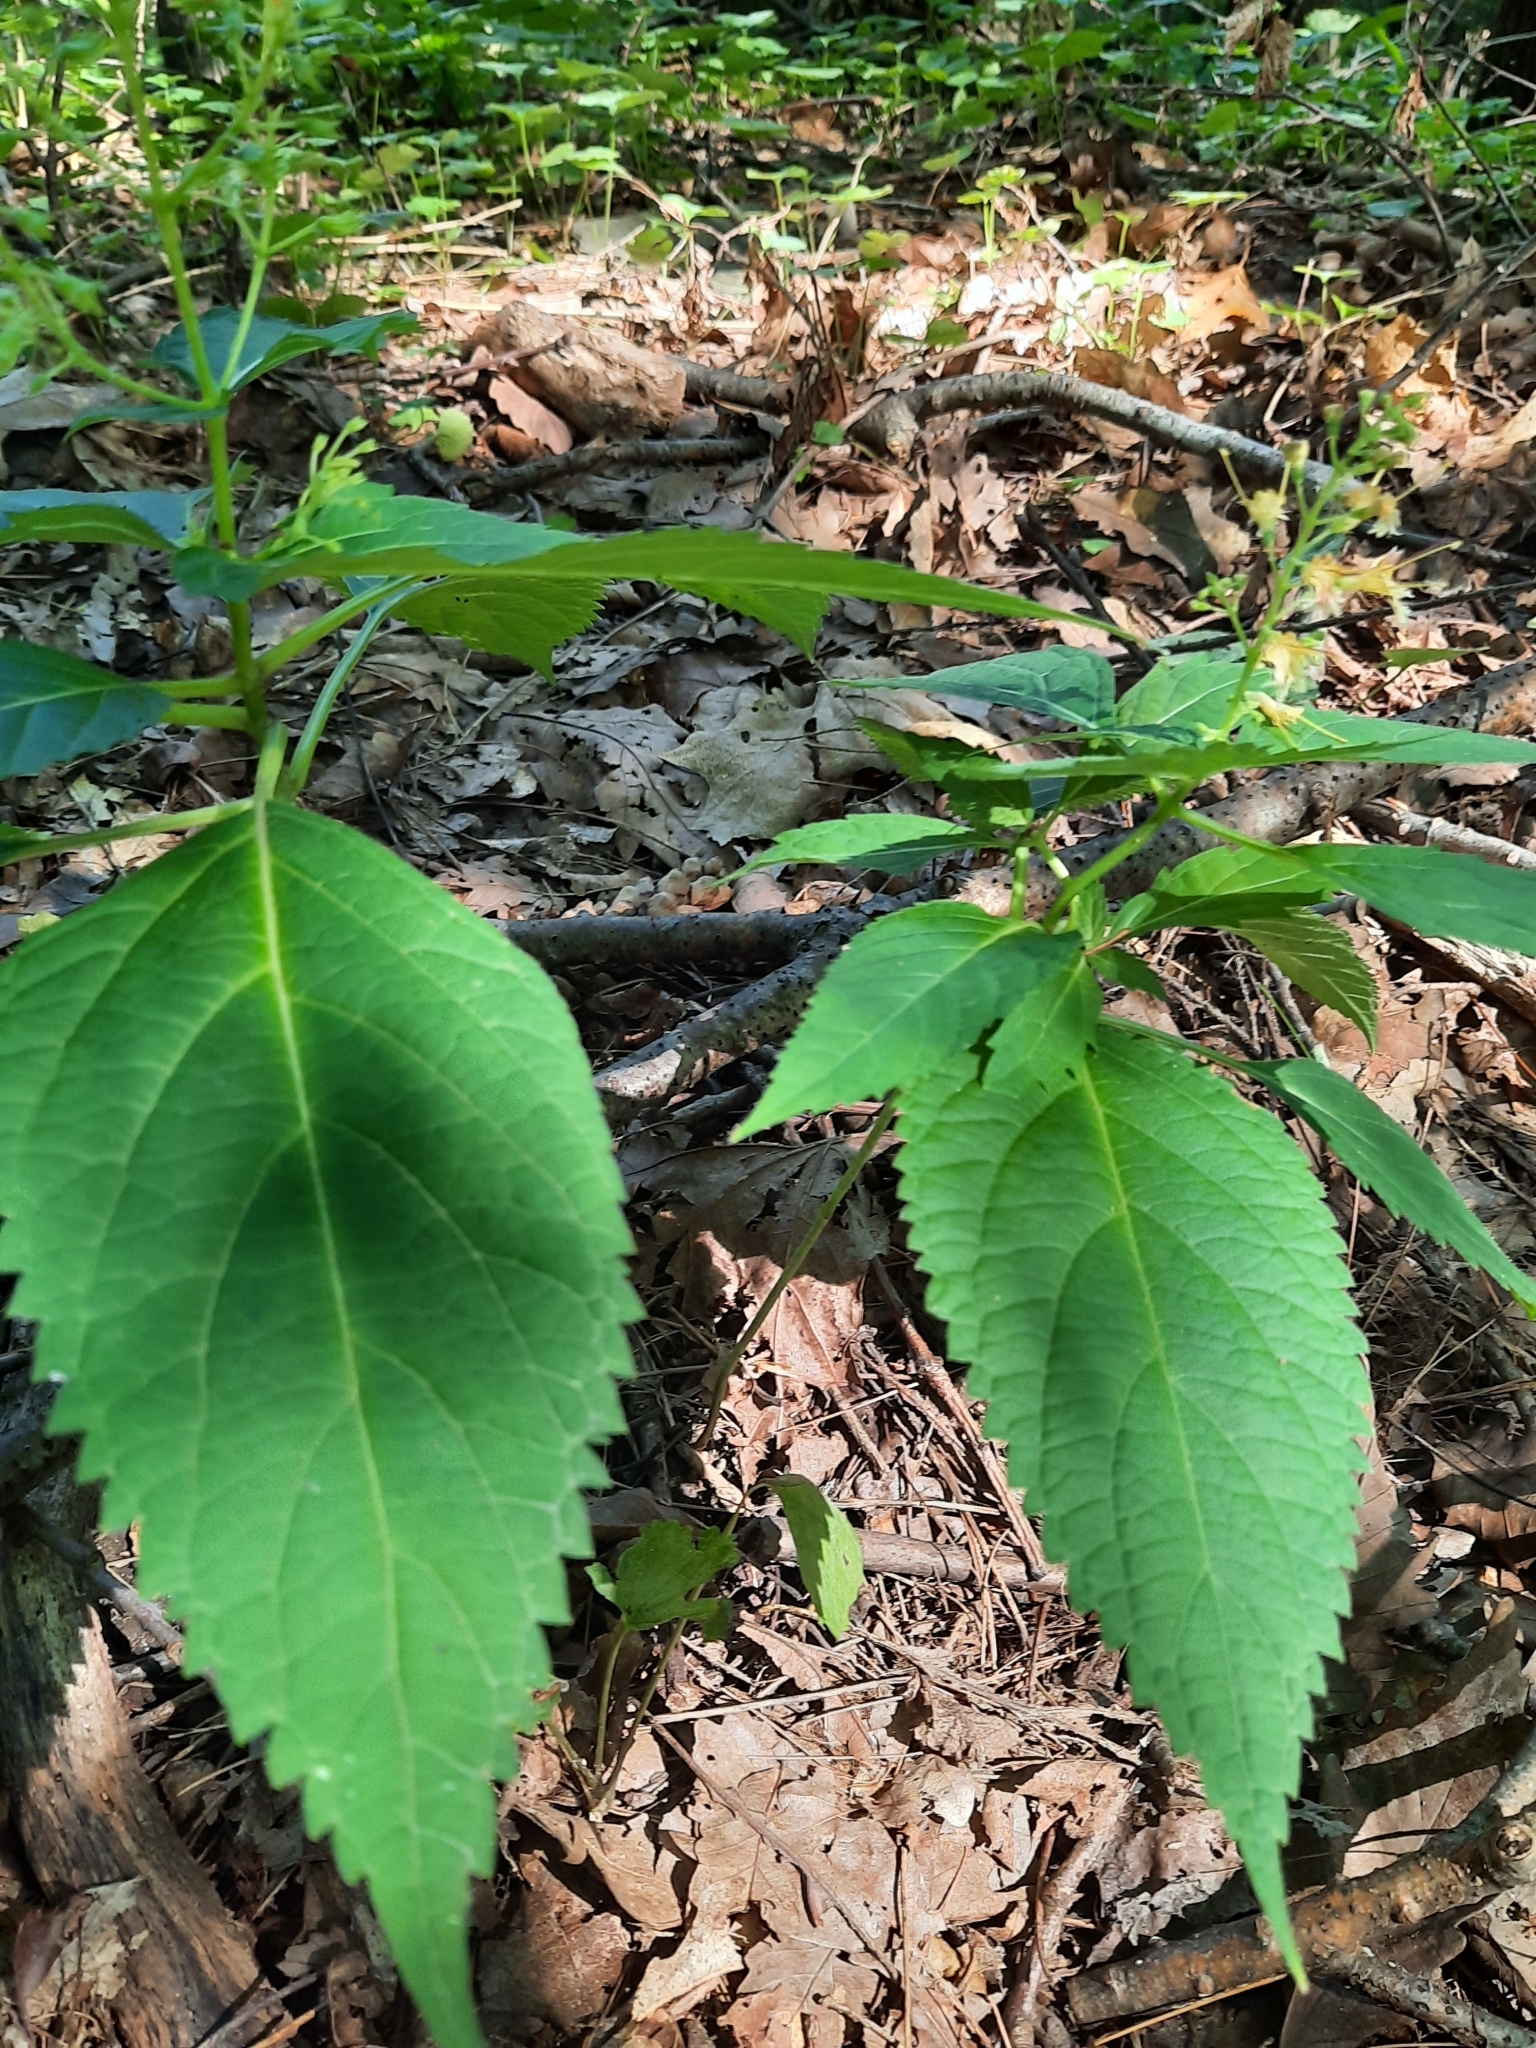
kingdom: Plantae
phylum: Tracheophyta
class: Magnoliopsida
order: Lamiales
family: Lamiaceae
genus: Collinsonia
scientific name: Collinsonia canadensis
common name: Northern horsebalm
